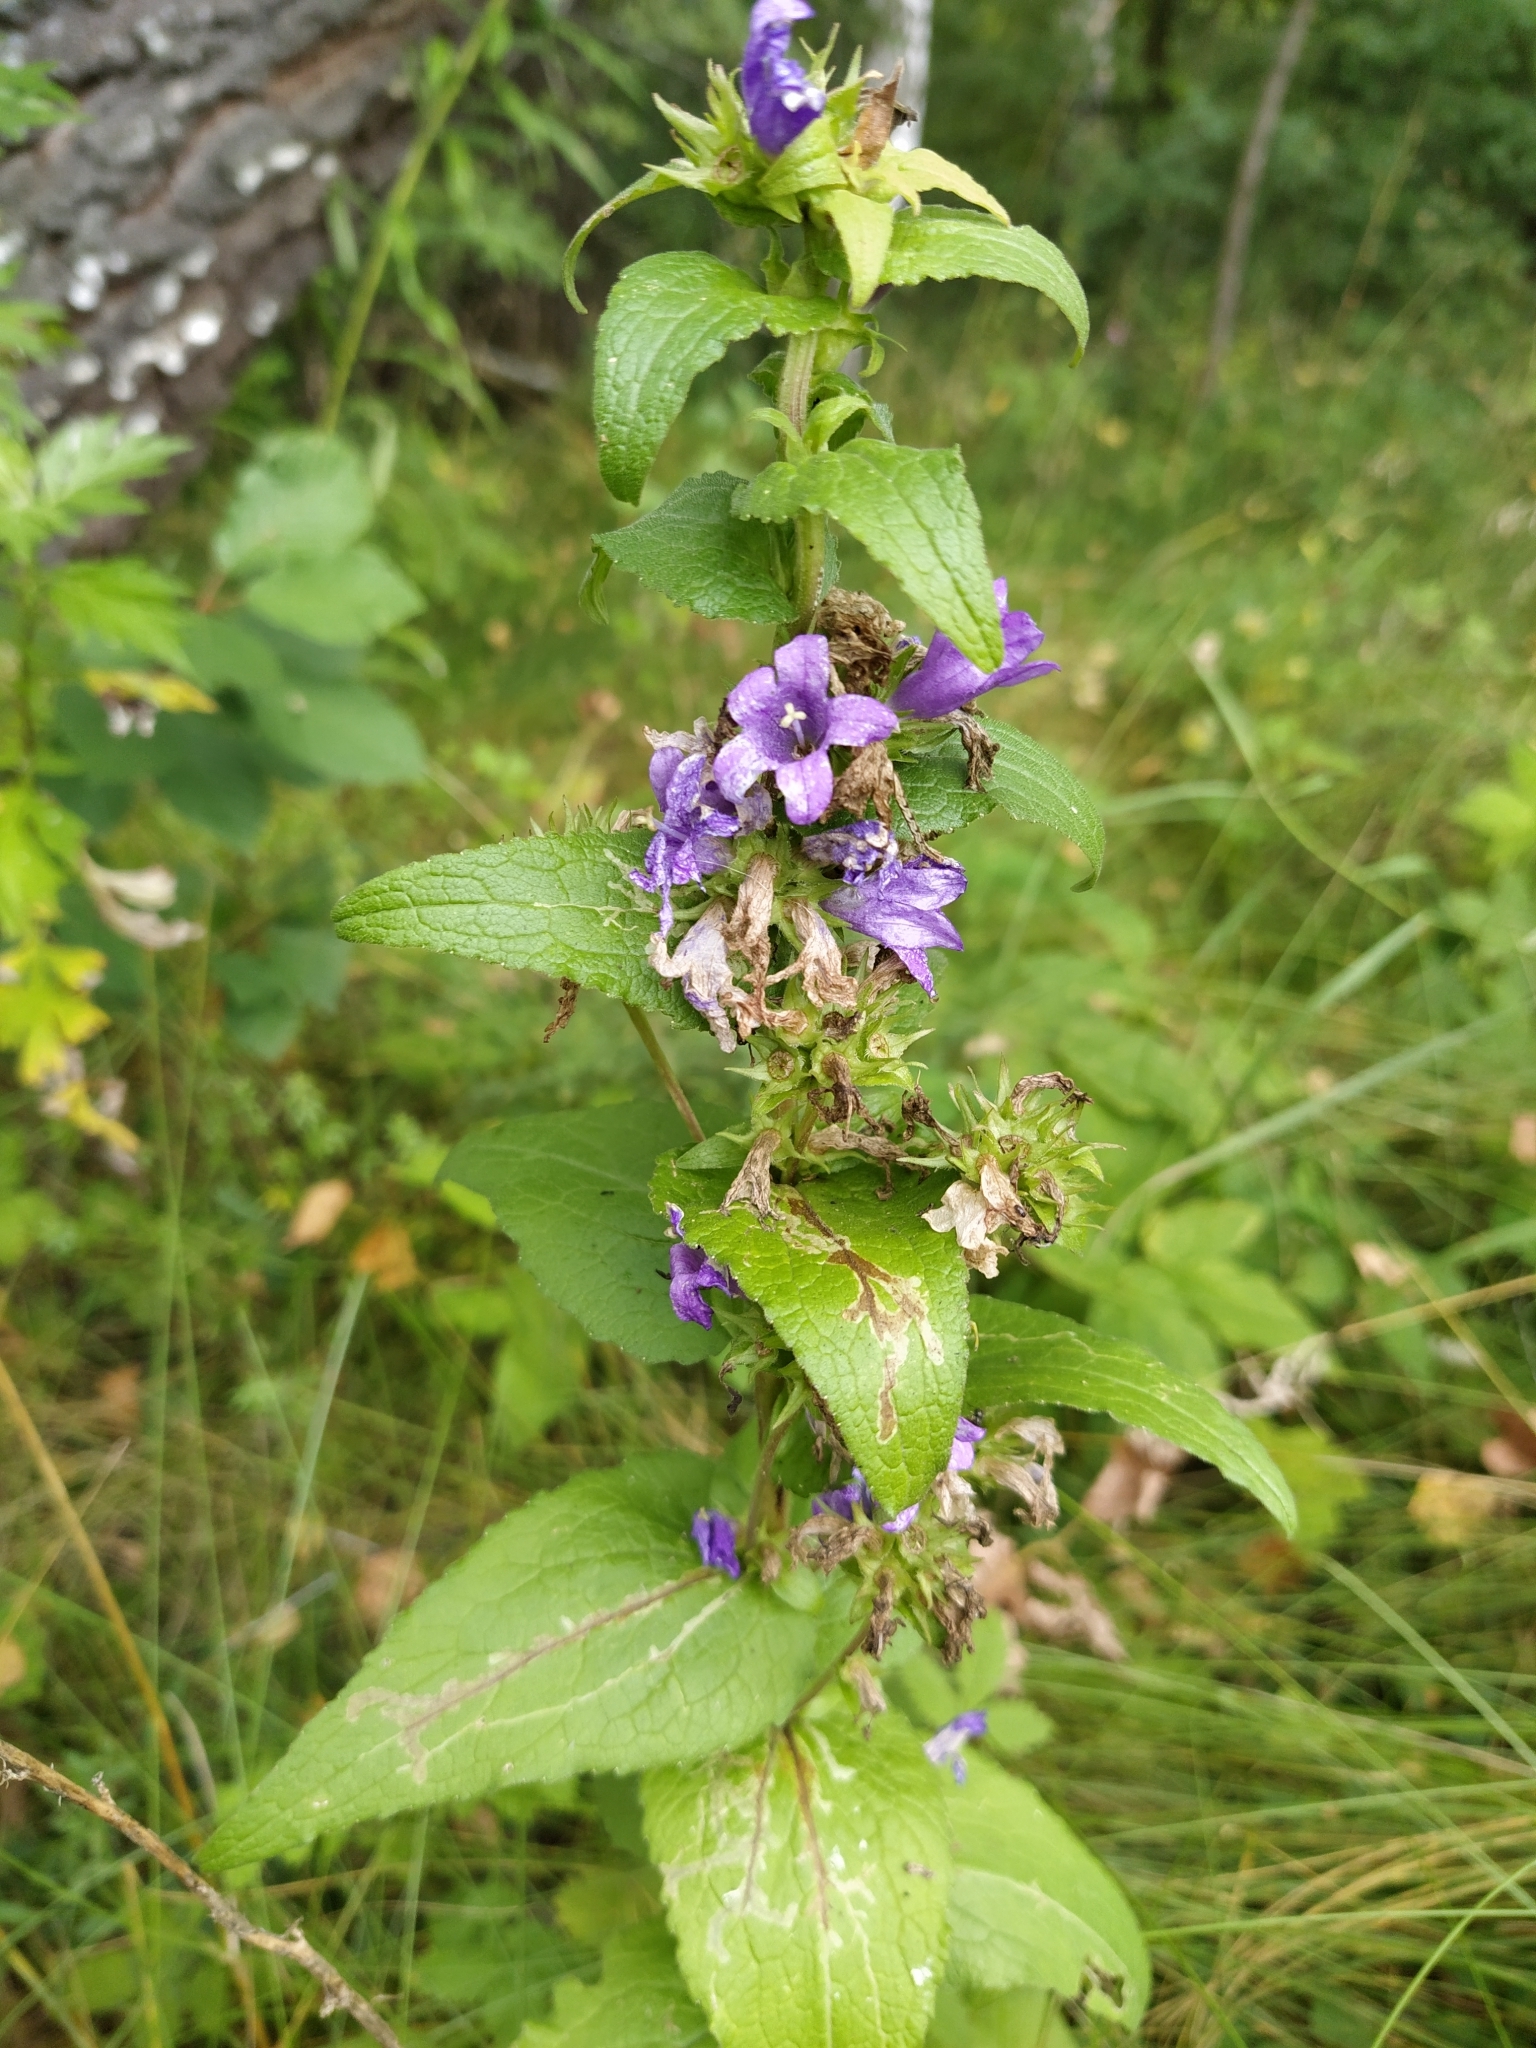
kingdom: Plantae
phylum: Tracheophyta
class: Magnoliopsida
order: Asterales
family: Campanulaceae
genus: Campanula
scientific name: Campanula glomerata
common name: Clustered bellflower
